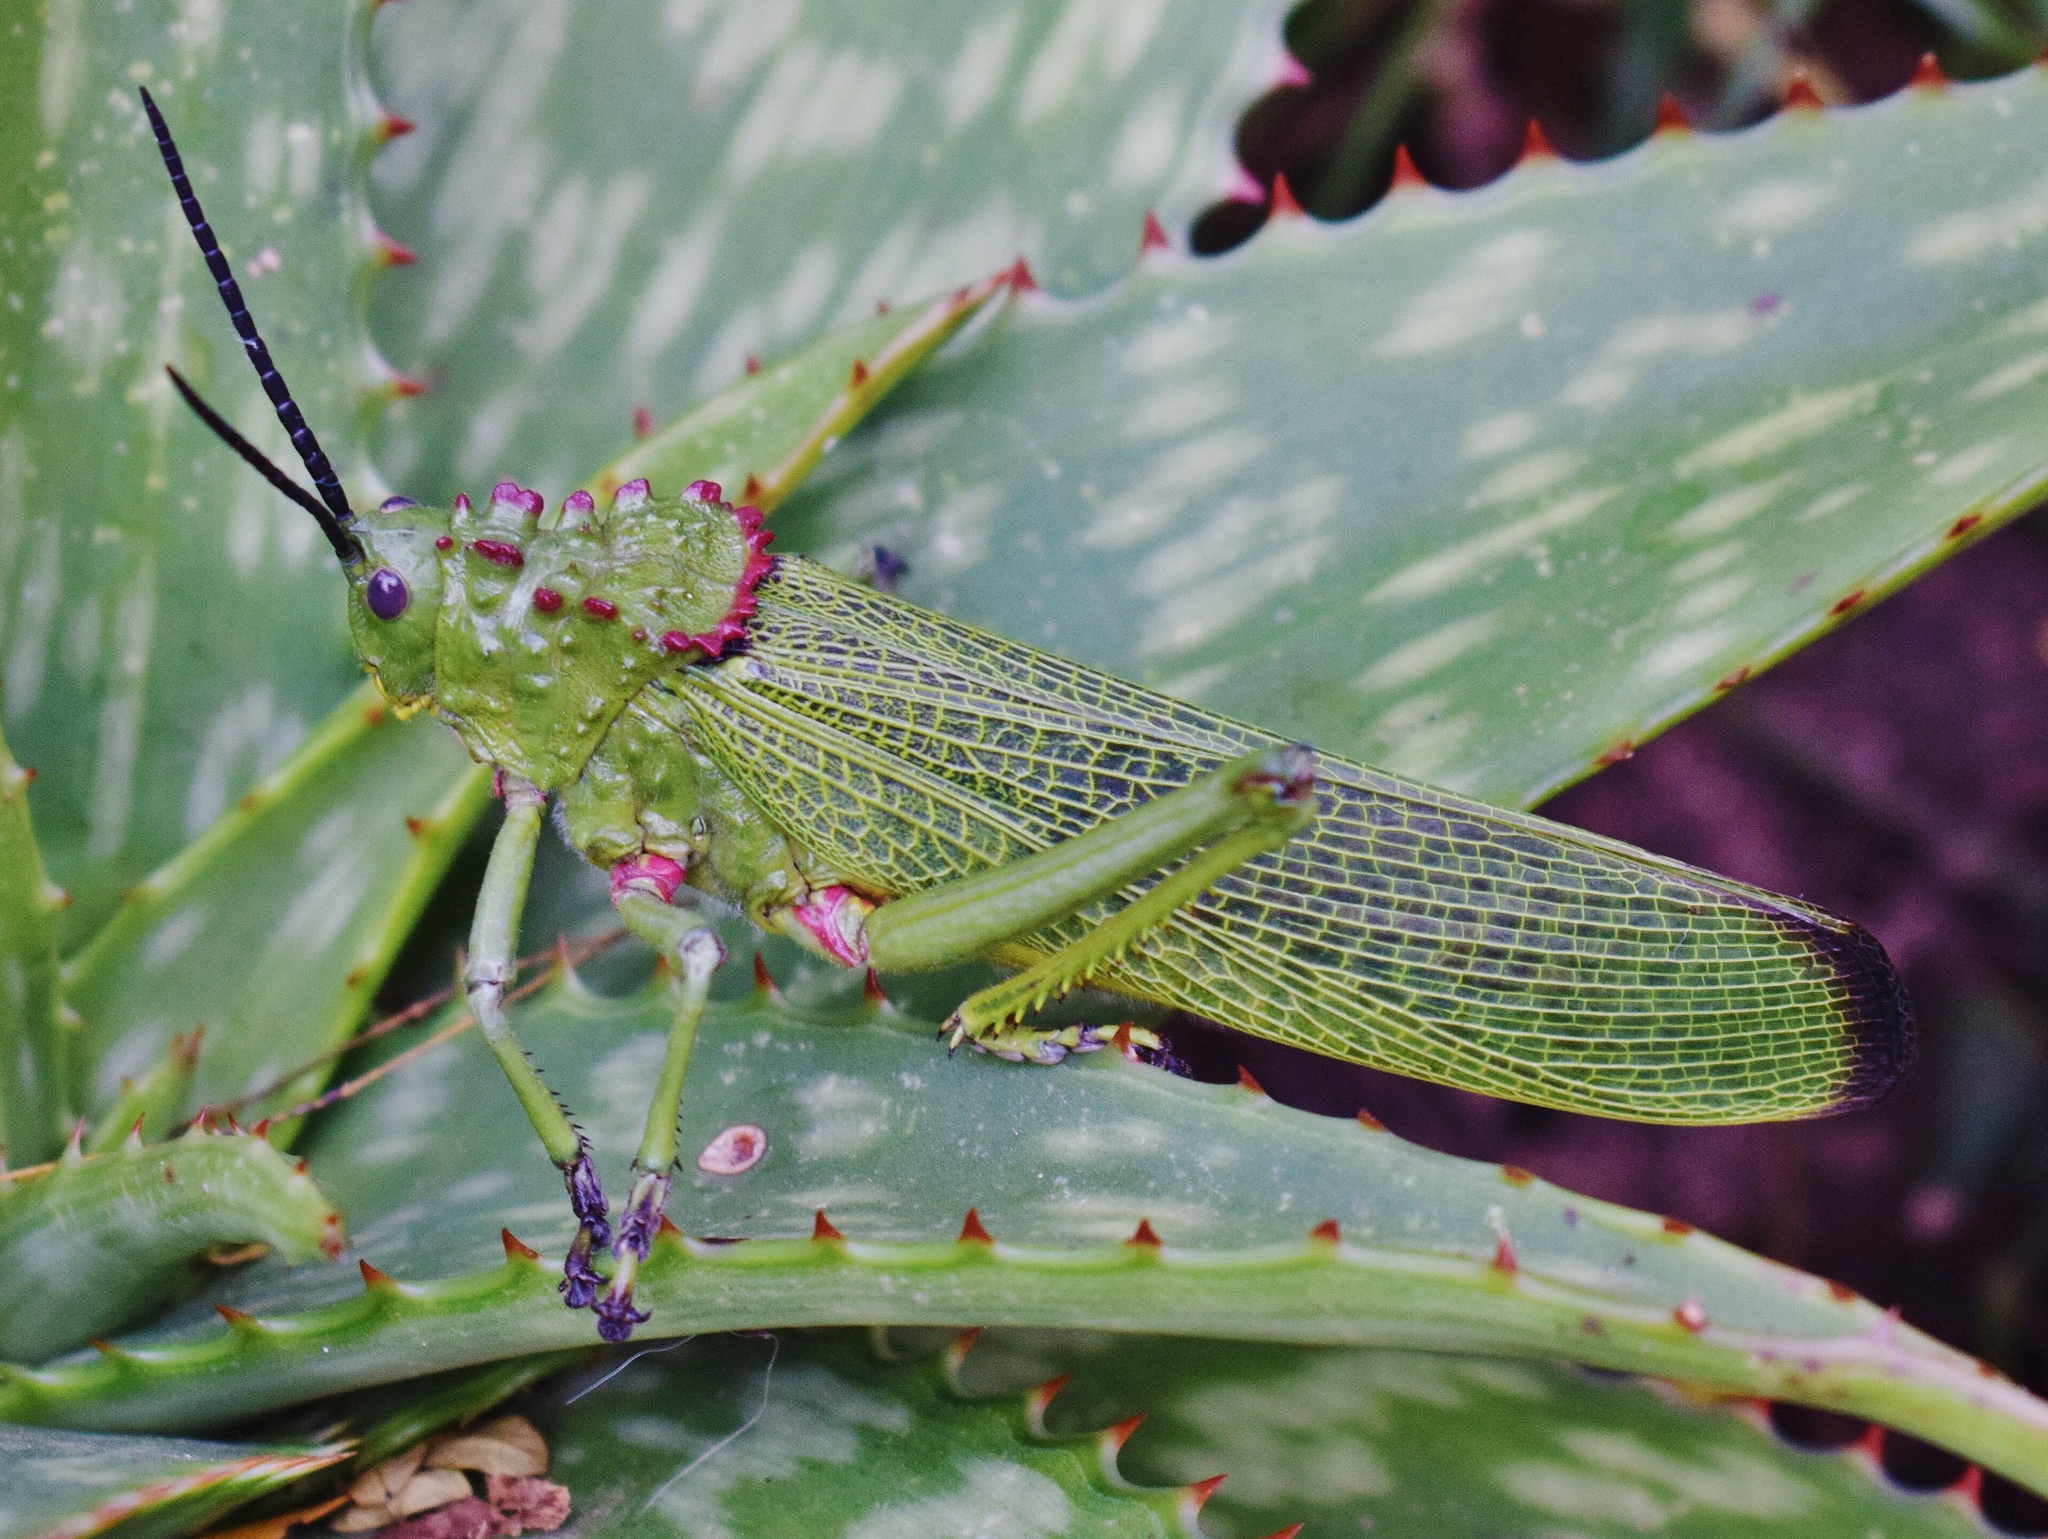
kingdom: Animalia
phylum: Arthropoda
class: Insecta
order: Orthoptera
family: Pyrgomorphidae
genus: Phymateus
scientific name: Phymateus viridipes
